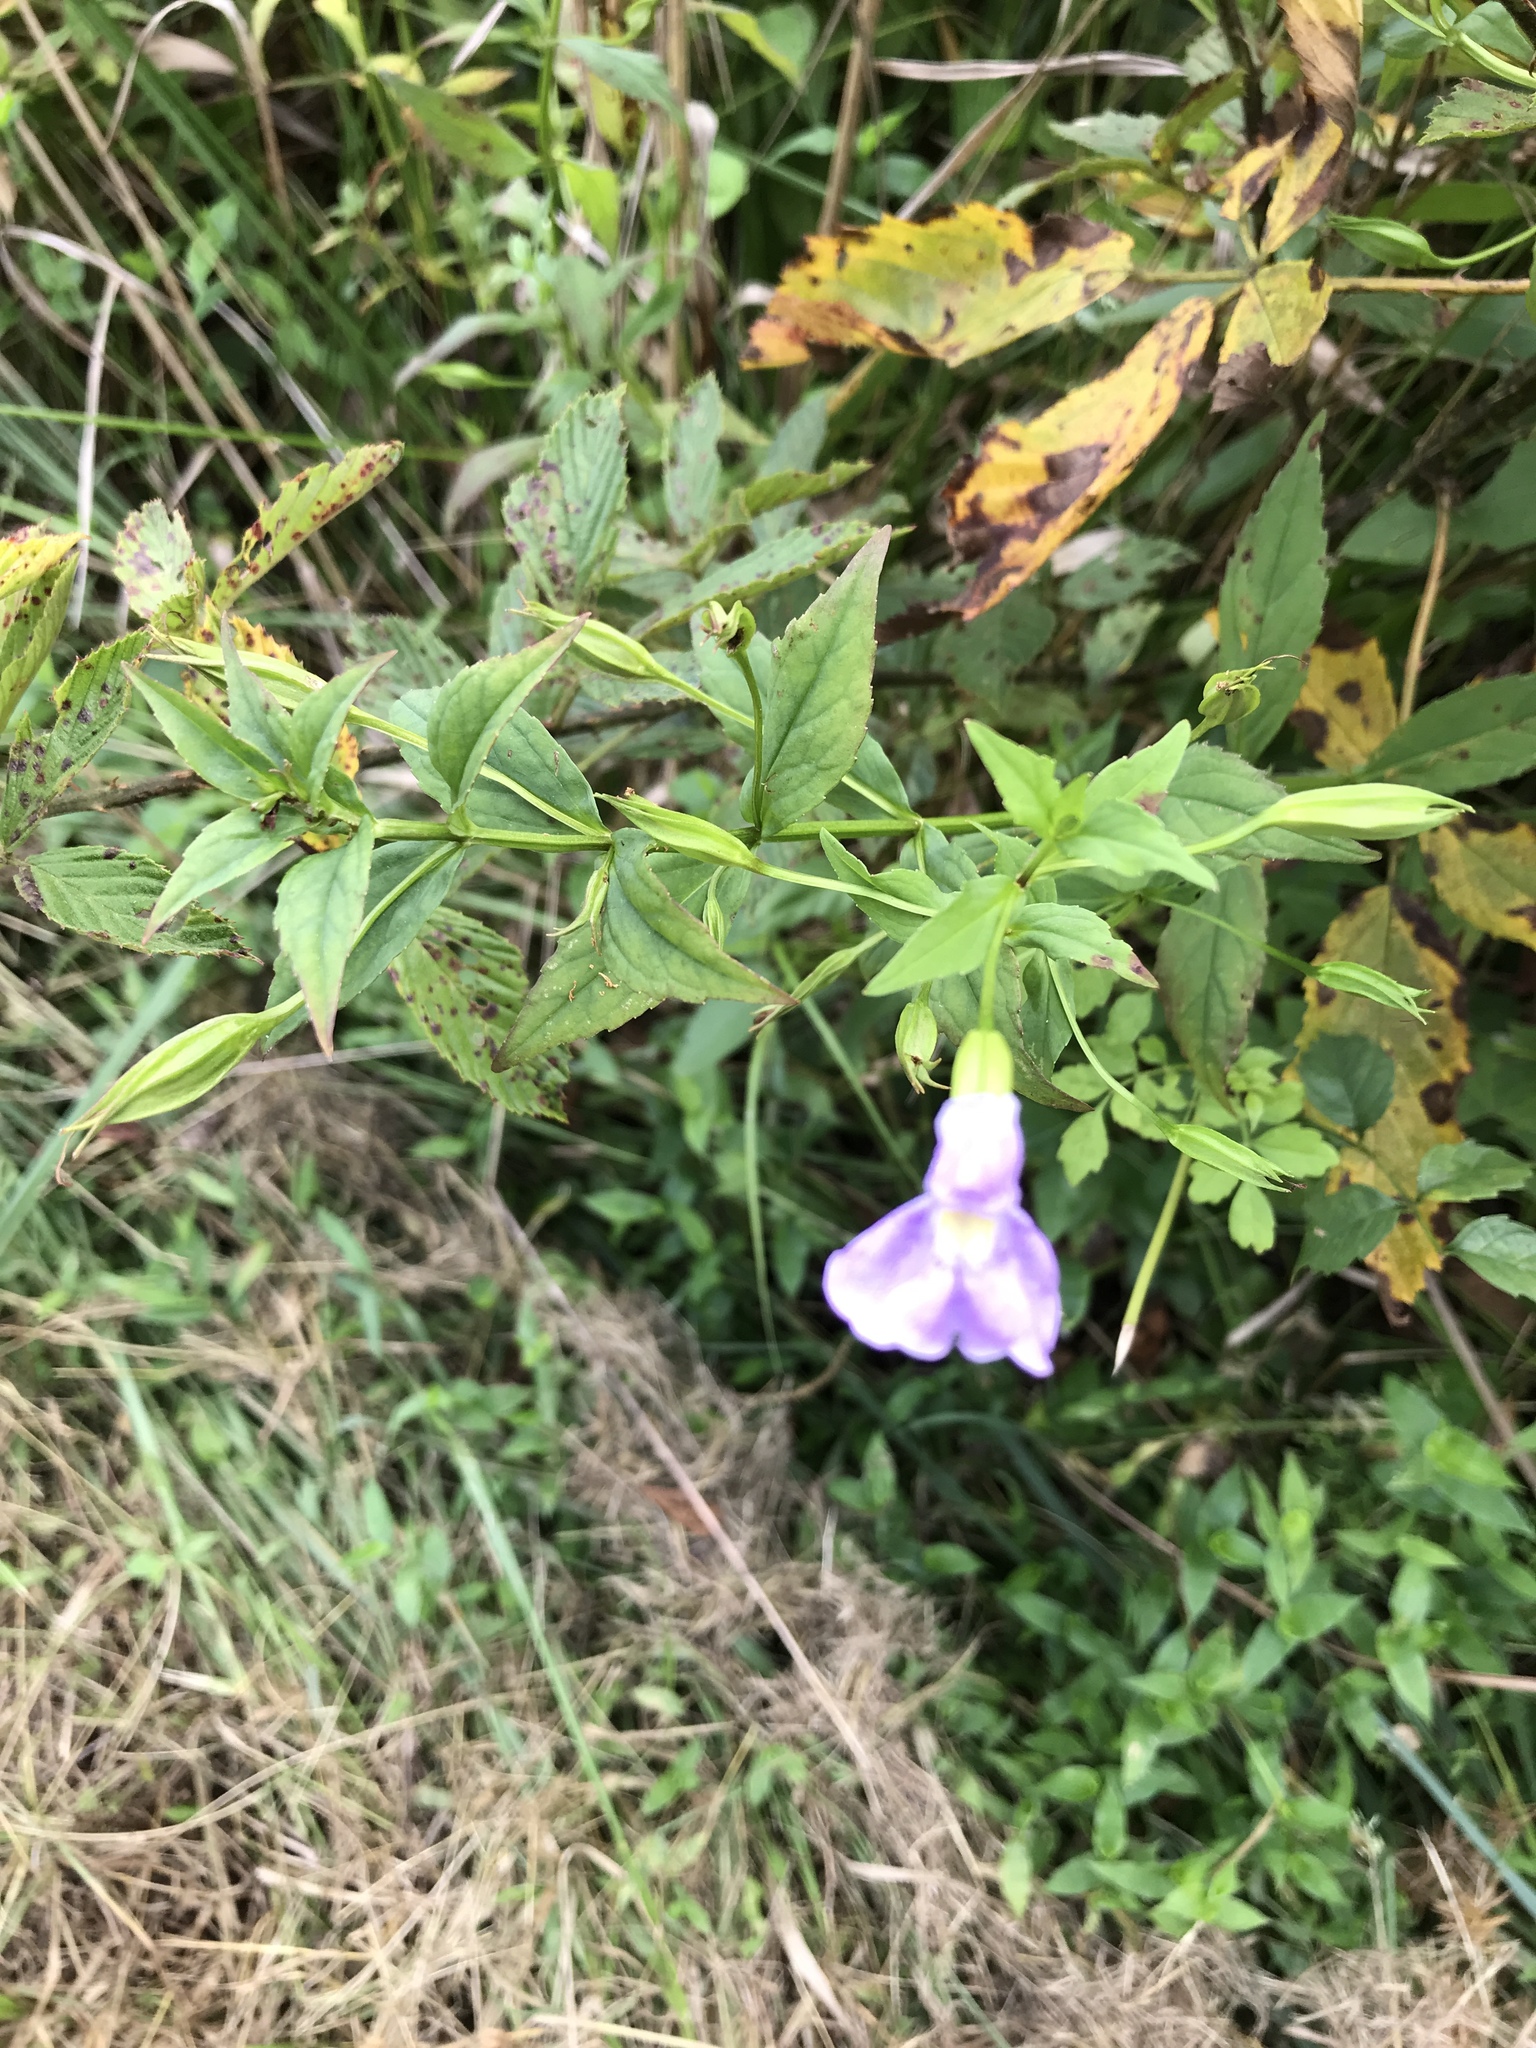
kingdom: Plantae
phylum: Tracheophyta
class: Magnoliopsida
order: Lamiales
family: Phrymaceae
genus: Mimulus
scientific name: Mimulus ringens
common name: Allegheny monkeyflower
